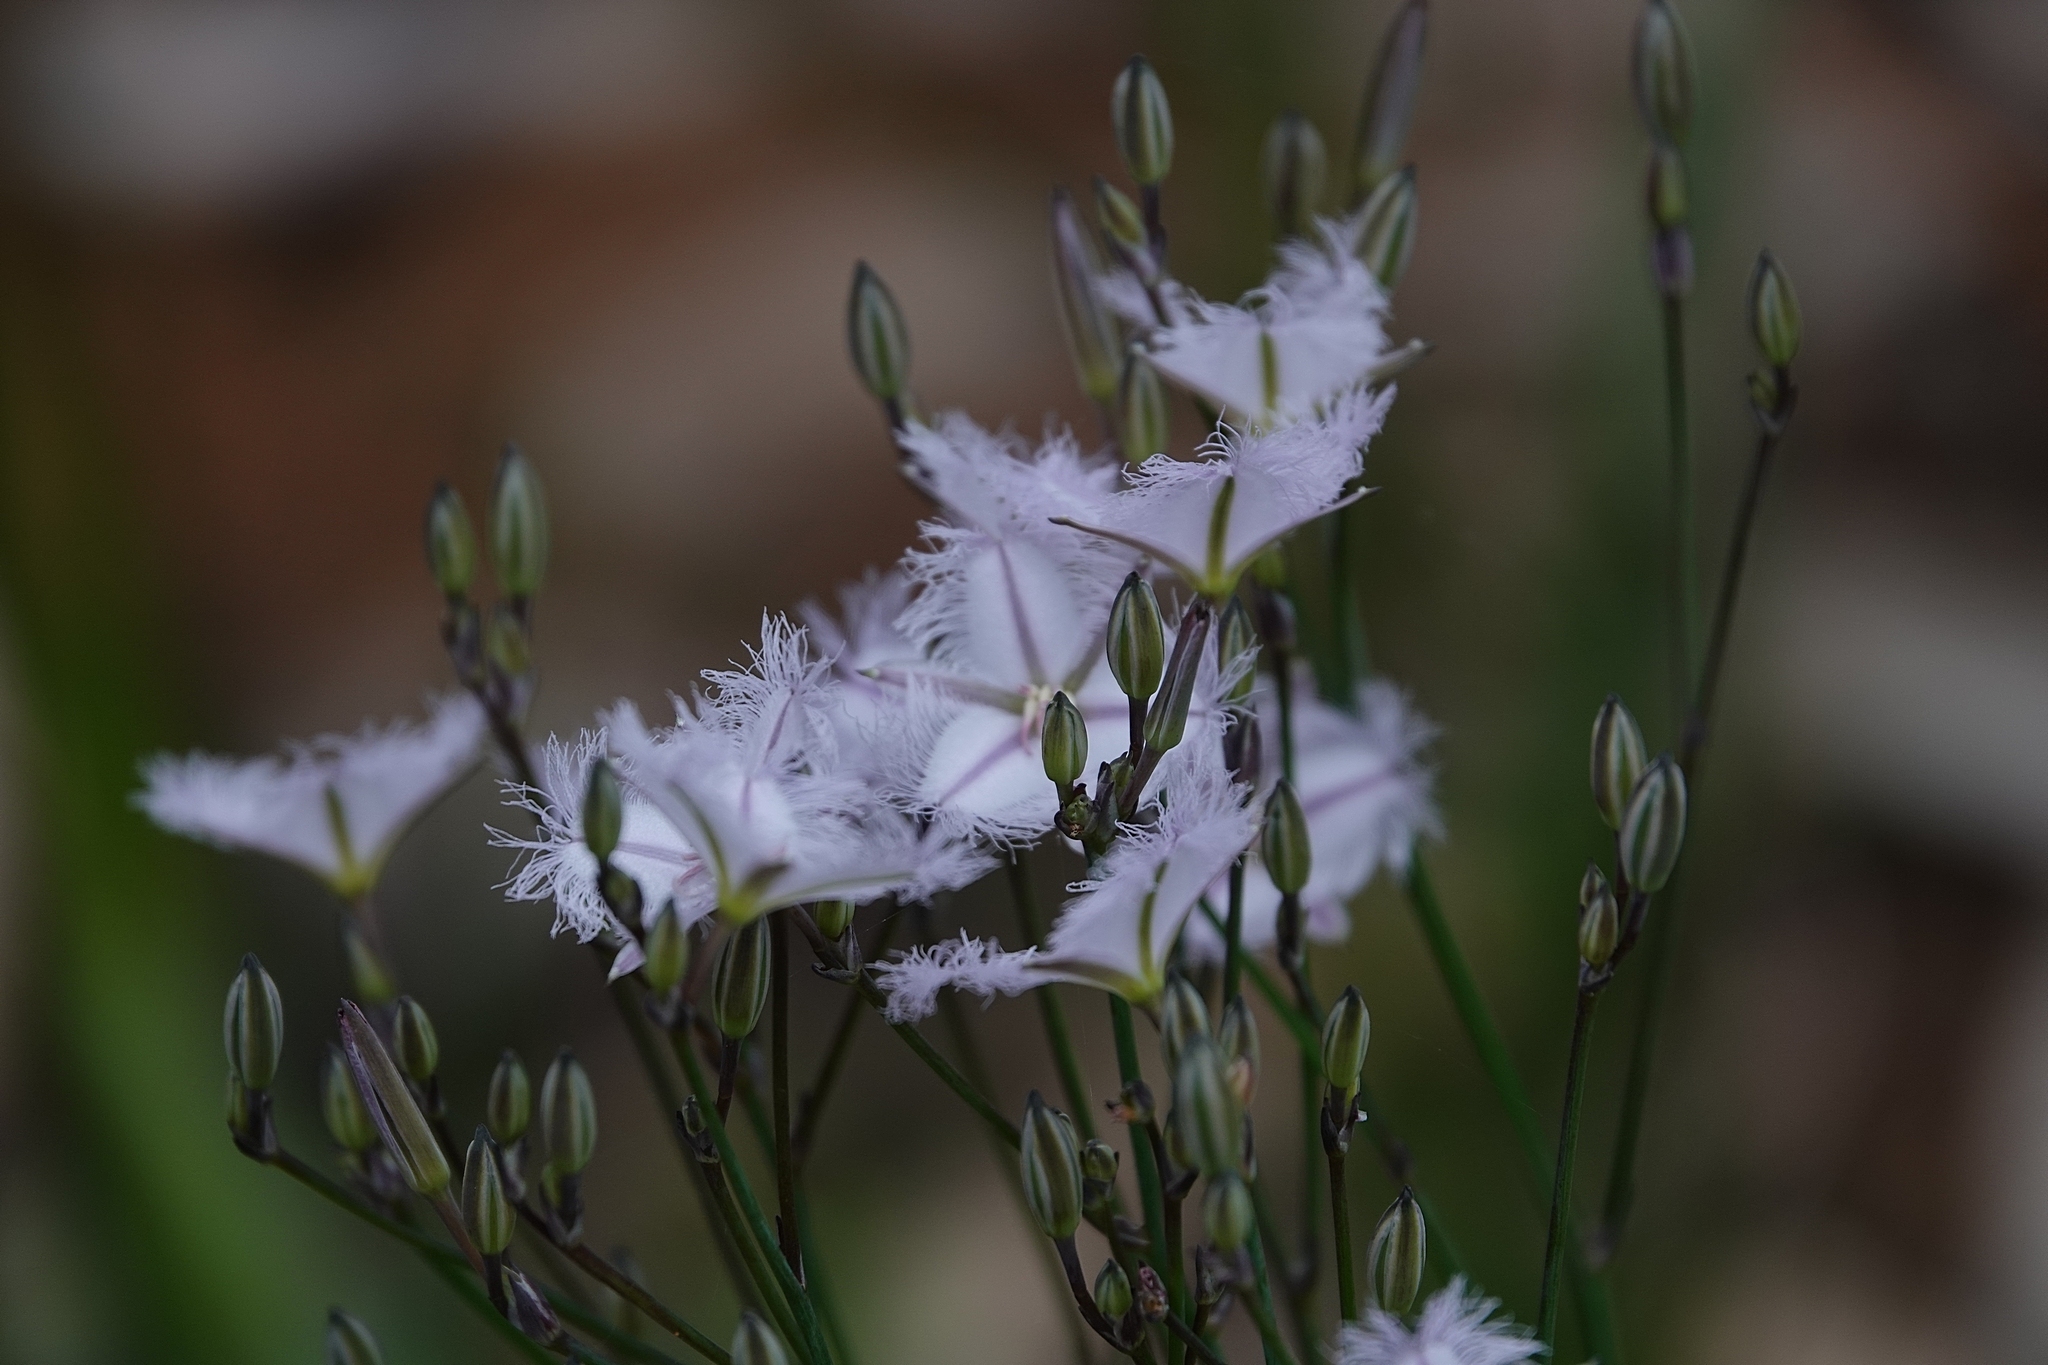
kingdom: Plantae
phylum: Tracheophyta
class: Liliopsida
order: Asparagales
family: Asparagaceae
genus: Thysanotus
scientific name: Thysanotus tuberosus
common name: Common fringed-lily
